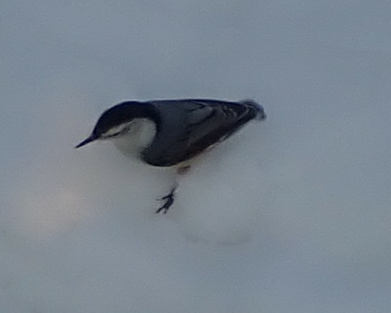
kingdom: Animalia
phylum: Chordata
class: Aves
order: Passeriformes
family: Sittidae
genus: Sitta
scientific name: Sitta carolinensis
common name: White-breasted nuthatch
